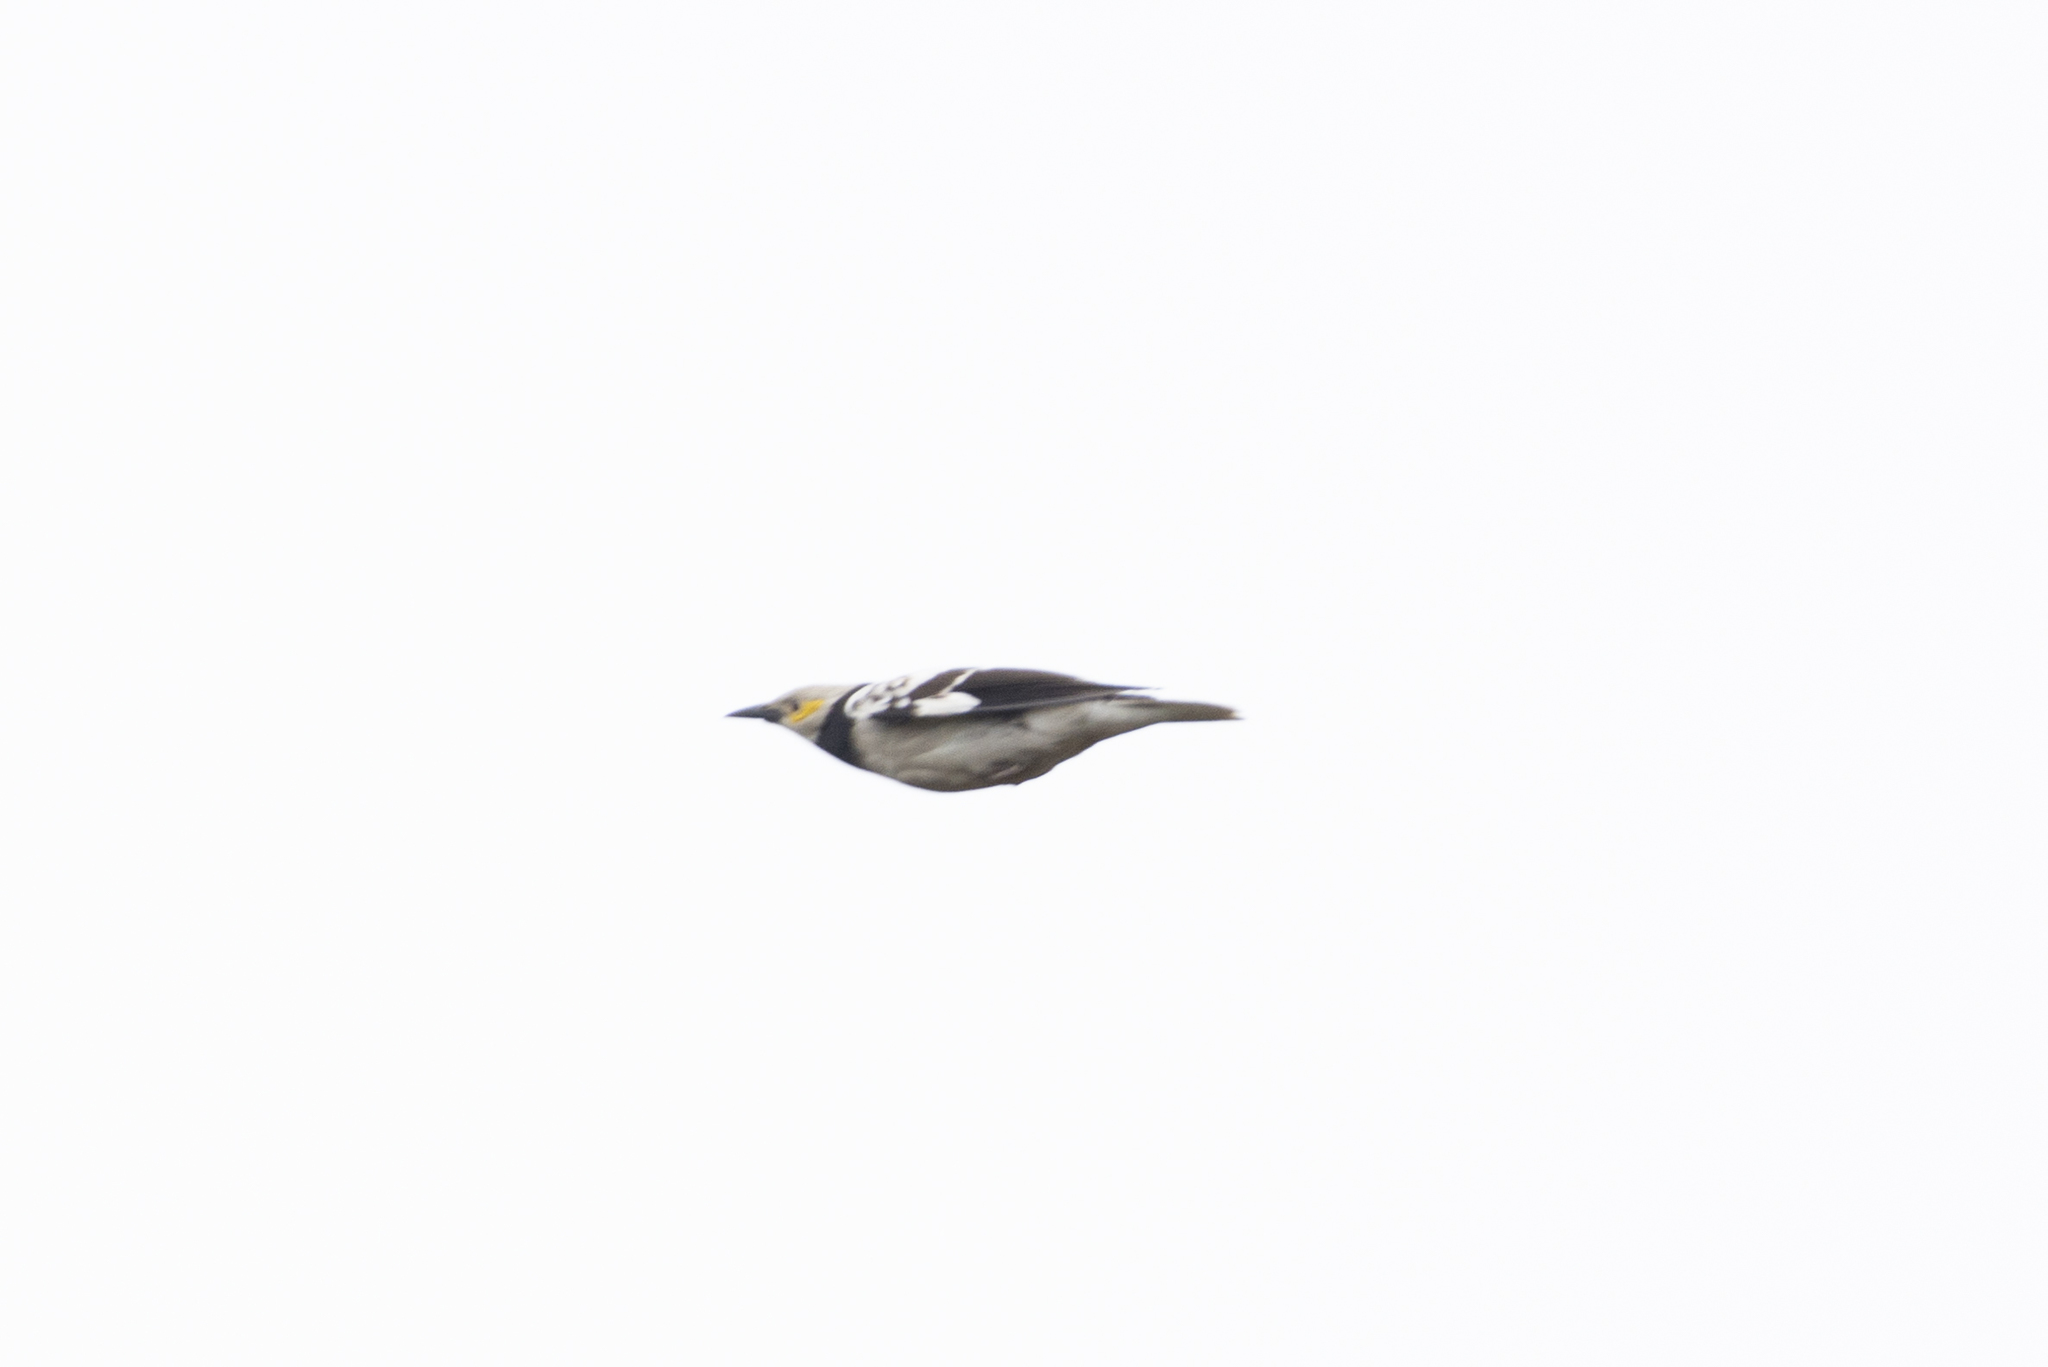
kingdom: Animalia
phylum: Chordata
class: Aves
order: Passeriformes
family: Sturnidae
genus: Gracupica
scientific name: Gracupica nigricollis
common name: Black-collared starling
